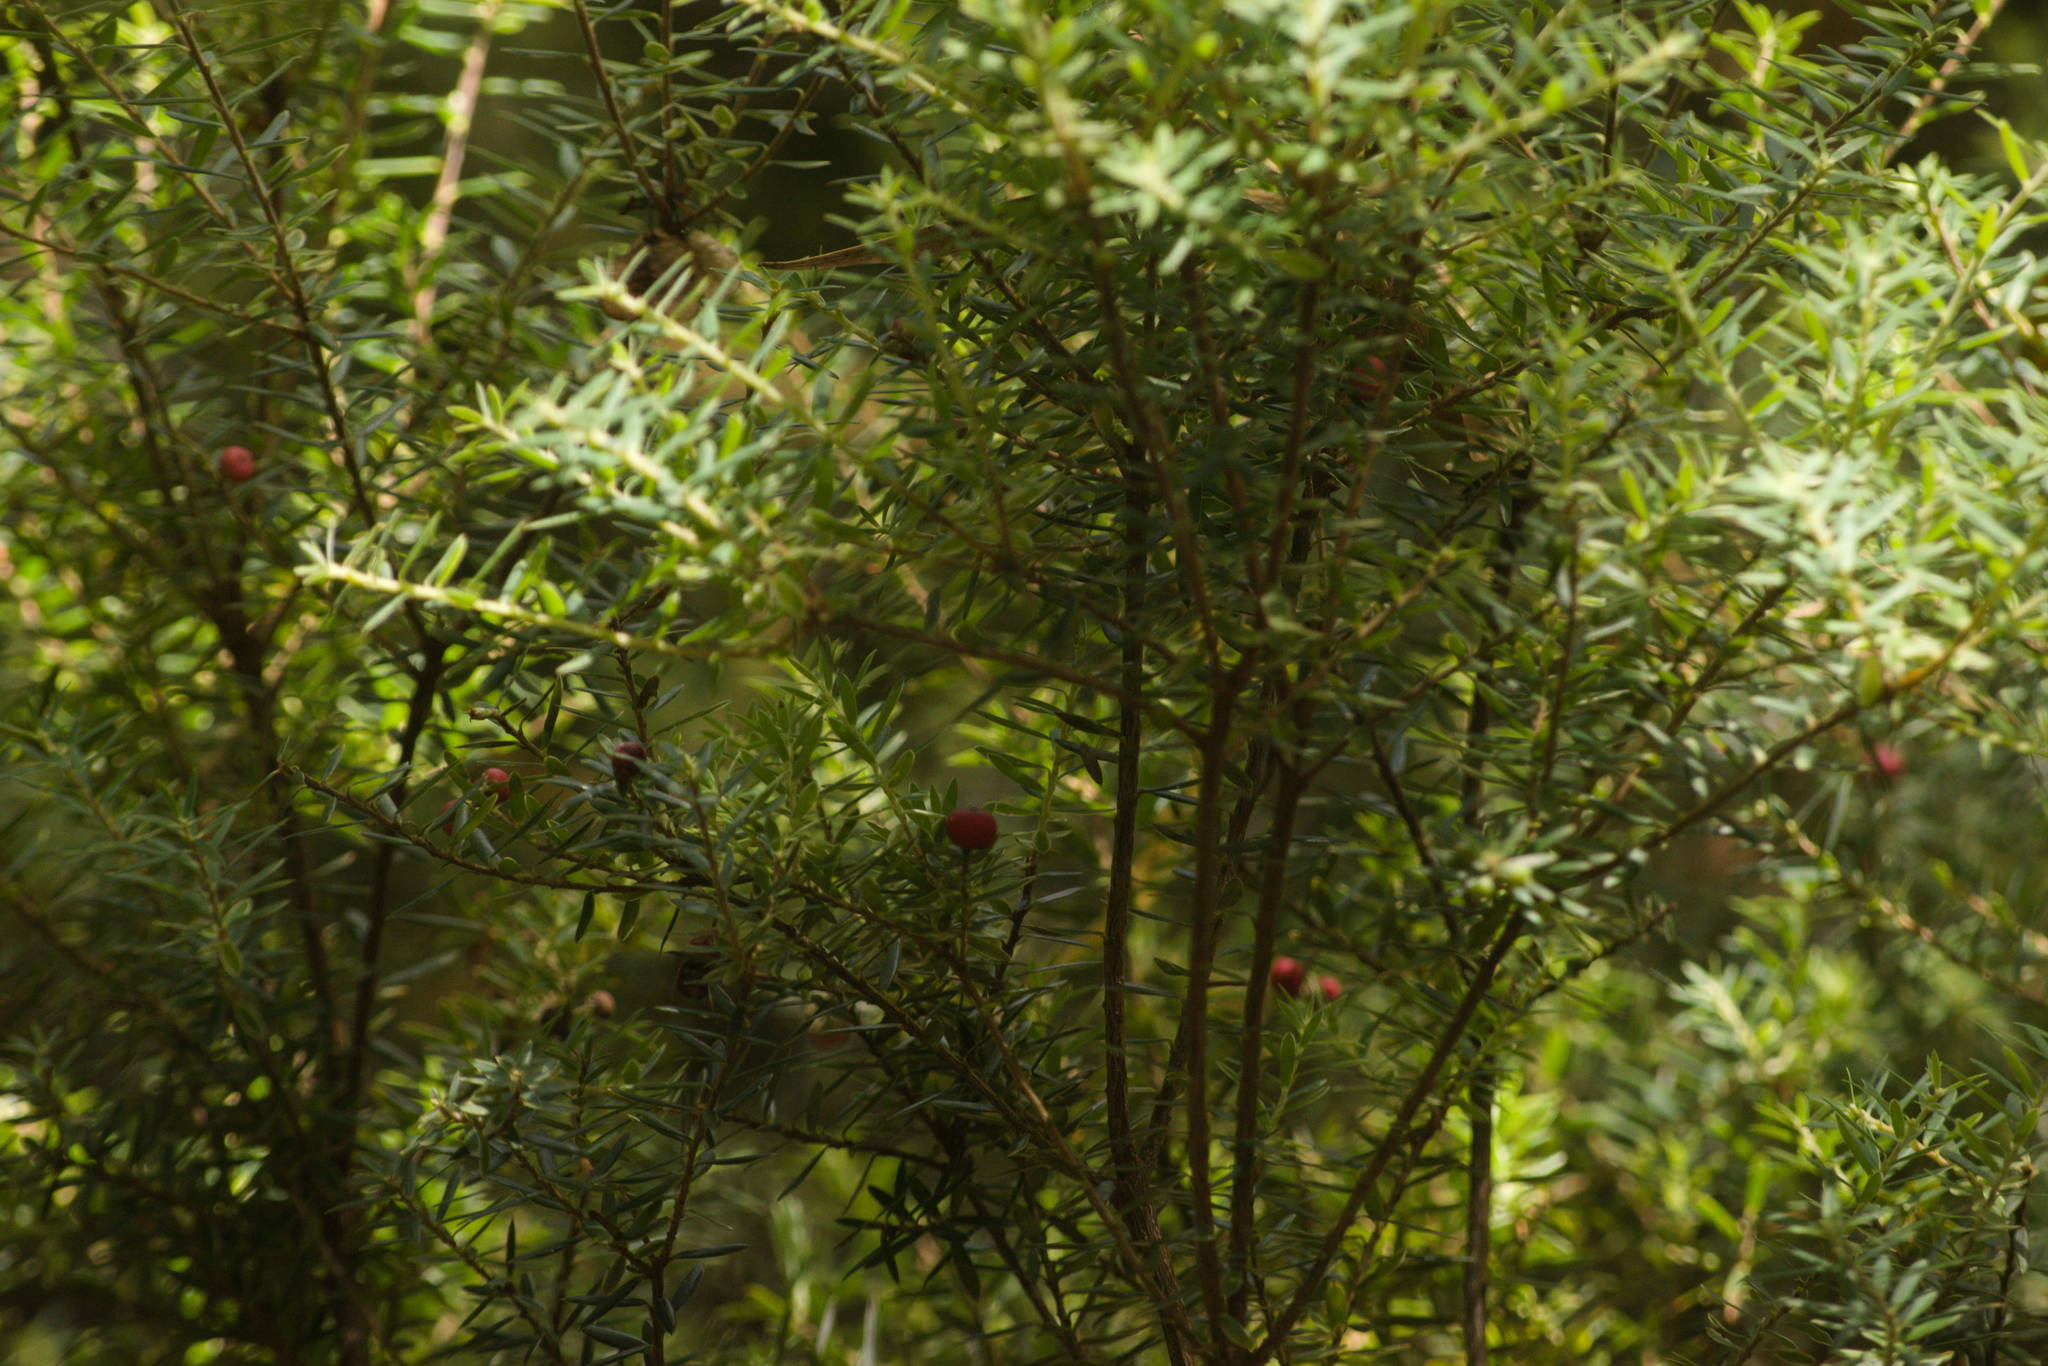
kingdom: Plantae
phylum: Tracheophyta
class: Magnoliopsida
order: Ericales
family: Ericaceae
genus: Leptecophylla
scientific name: Leptecophylla tameiameiae
